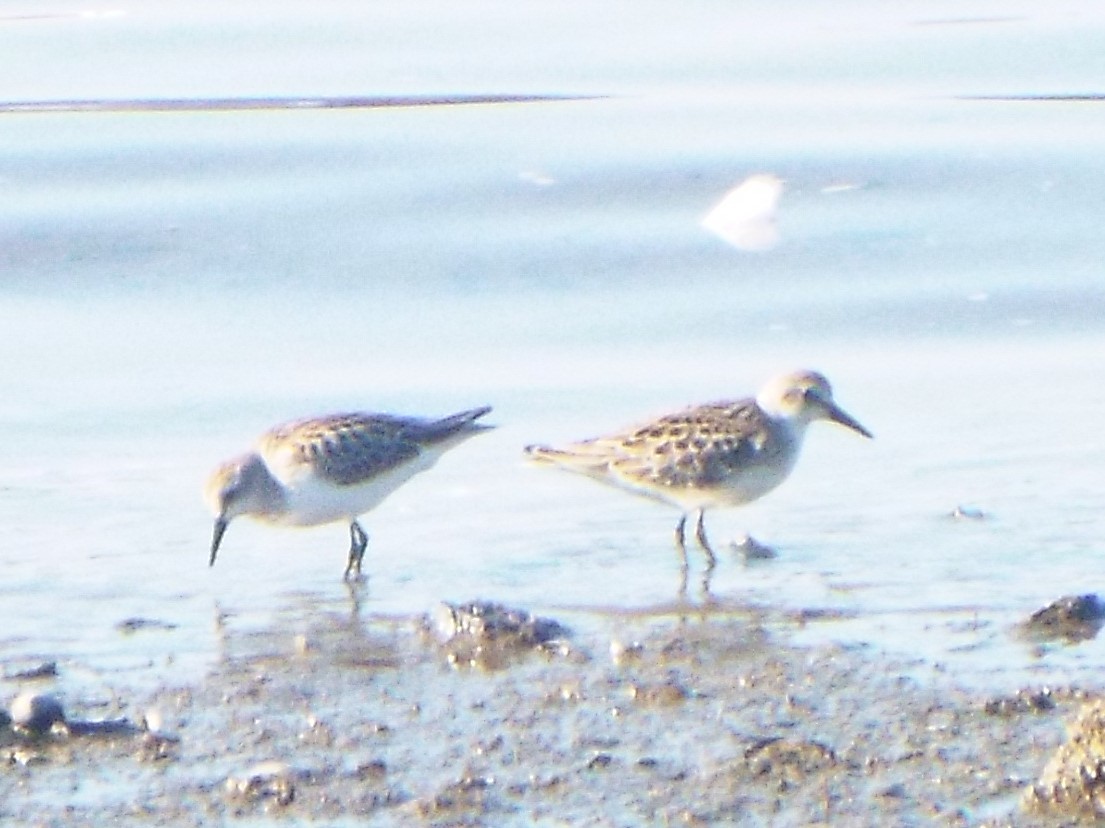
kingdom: Animalia
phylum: Chordata
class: Aves
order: Charadriiformes
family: Scolopacidae
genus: Calidris
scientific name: Calidris pusilla
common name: Semipalmated sandpiper
